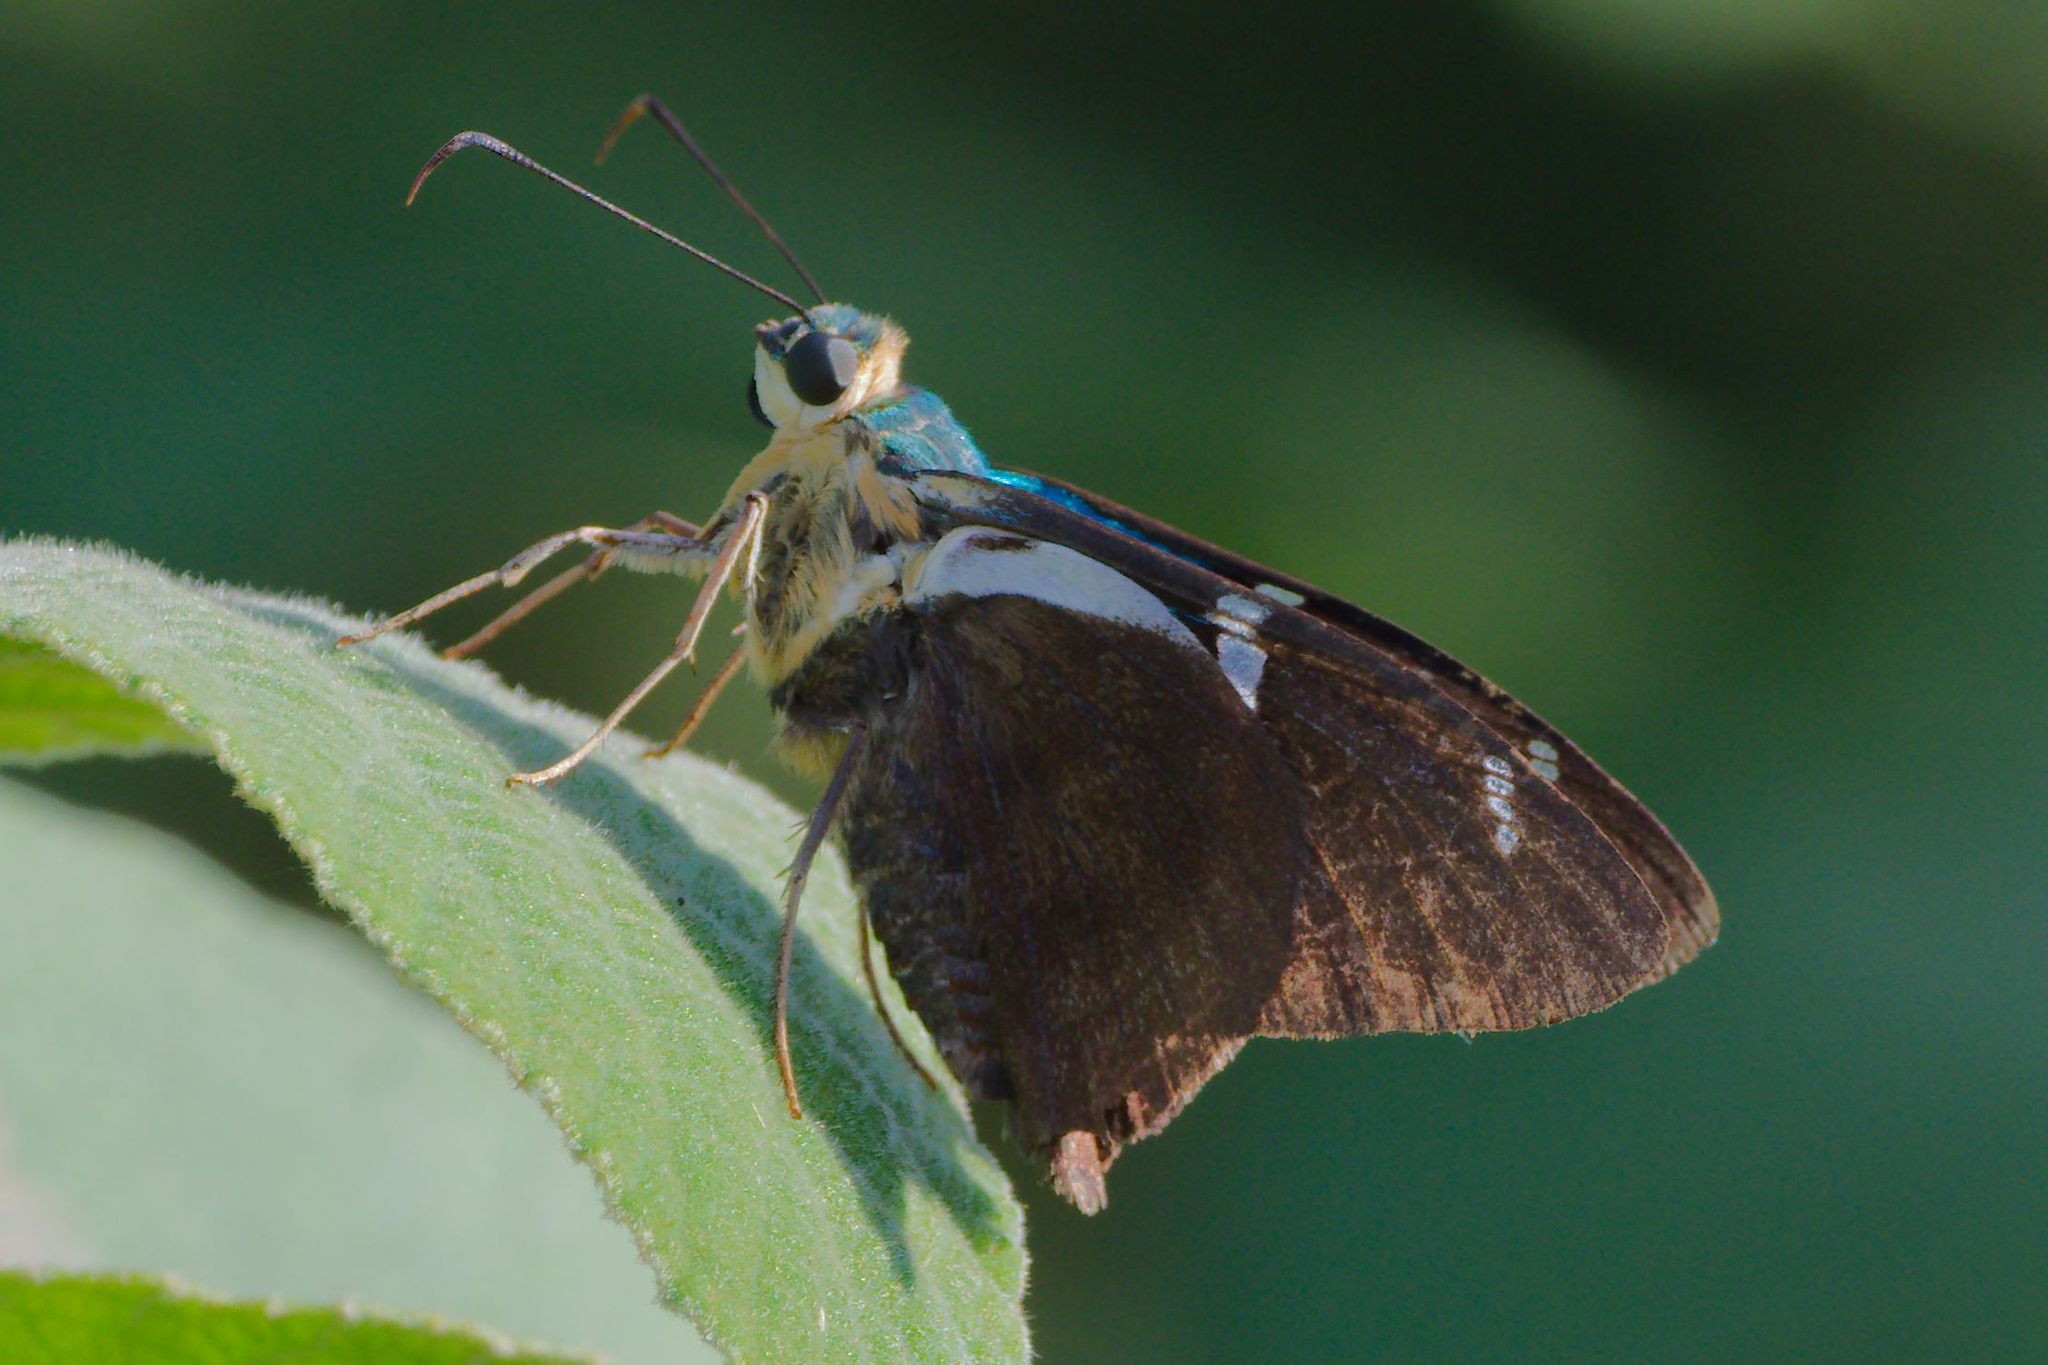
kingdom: Animalia
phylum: Arthropoda
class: Insecta
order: Lepidoptera
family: Hesperiidae
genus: Astraptes
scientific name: Astraptes fulgerator
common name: Two-barred flasher
